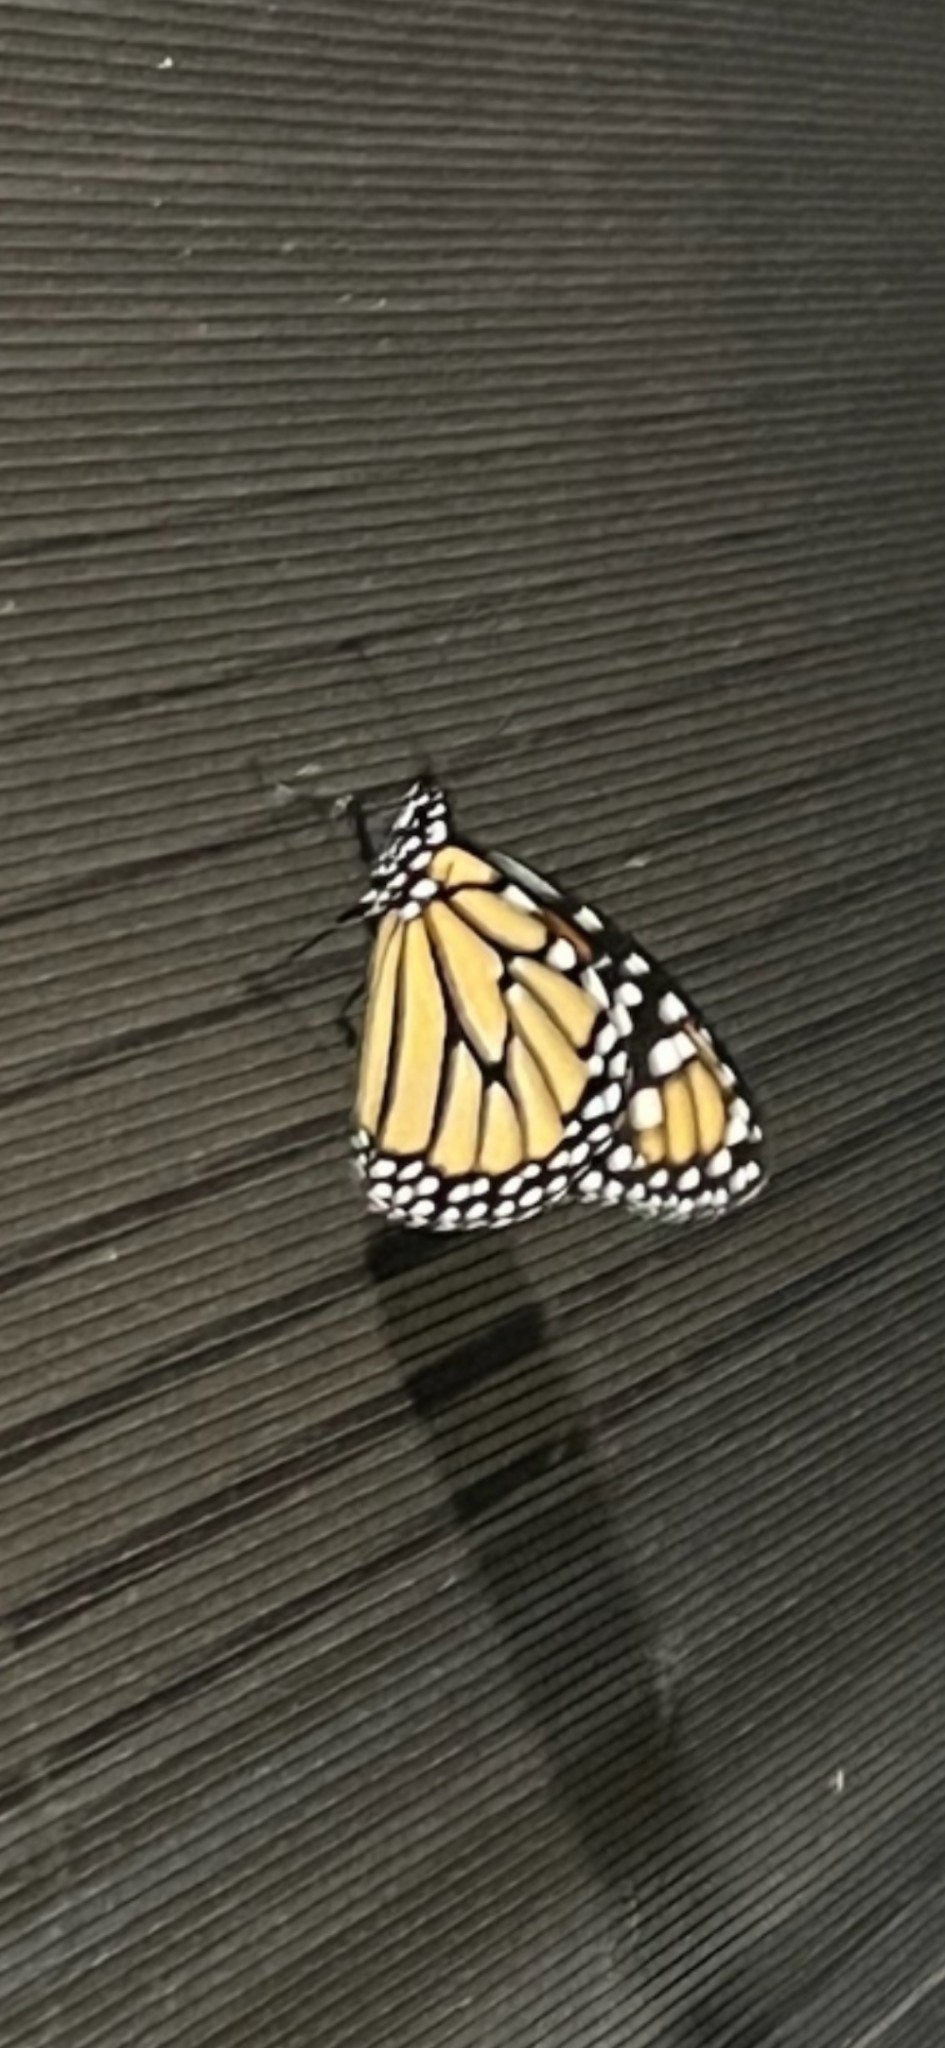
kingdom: Animalia
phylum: Arthropoda
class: Insecta
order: Lepidoptera
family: Nymphalidae
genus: Danaus
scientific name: Danaus plexippus
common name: Monarch
